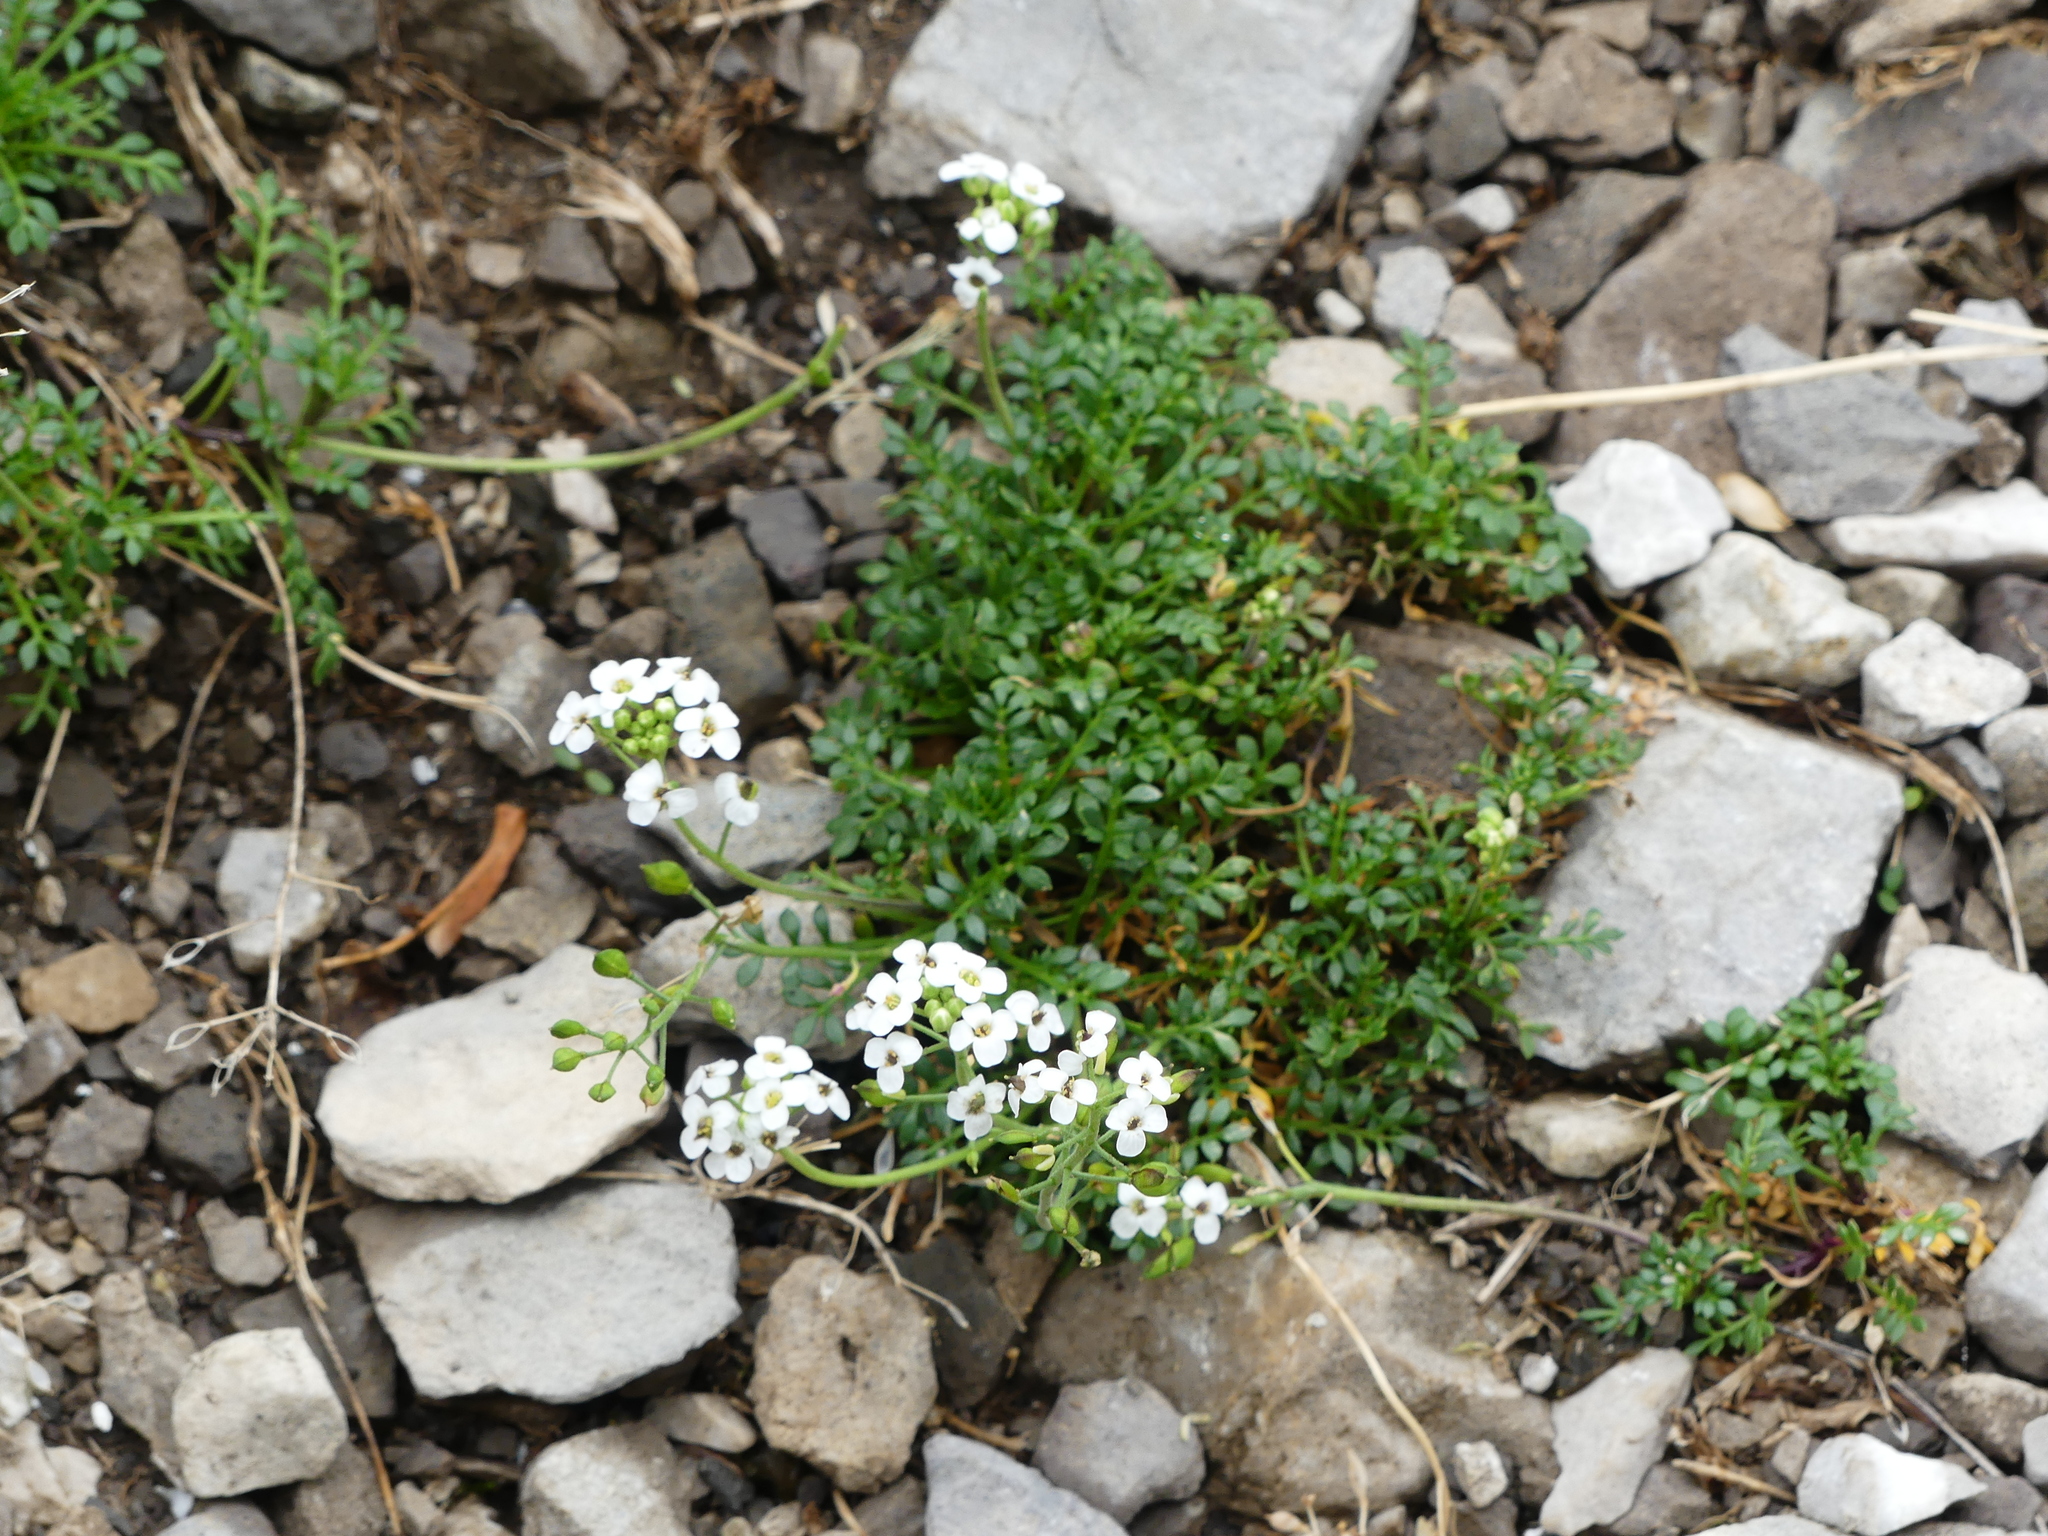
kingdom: Plantae
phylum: Tracheophyta
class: Magnoliopsida
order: Brassicales
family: Brassicaceae
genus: Lobularia
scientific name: Lobularia maritima
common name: Sweet alison
